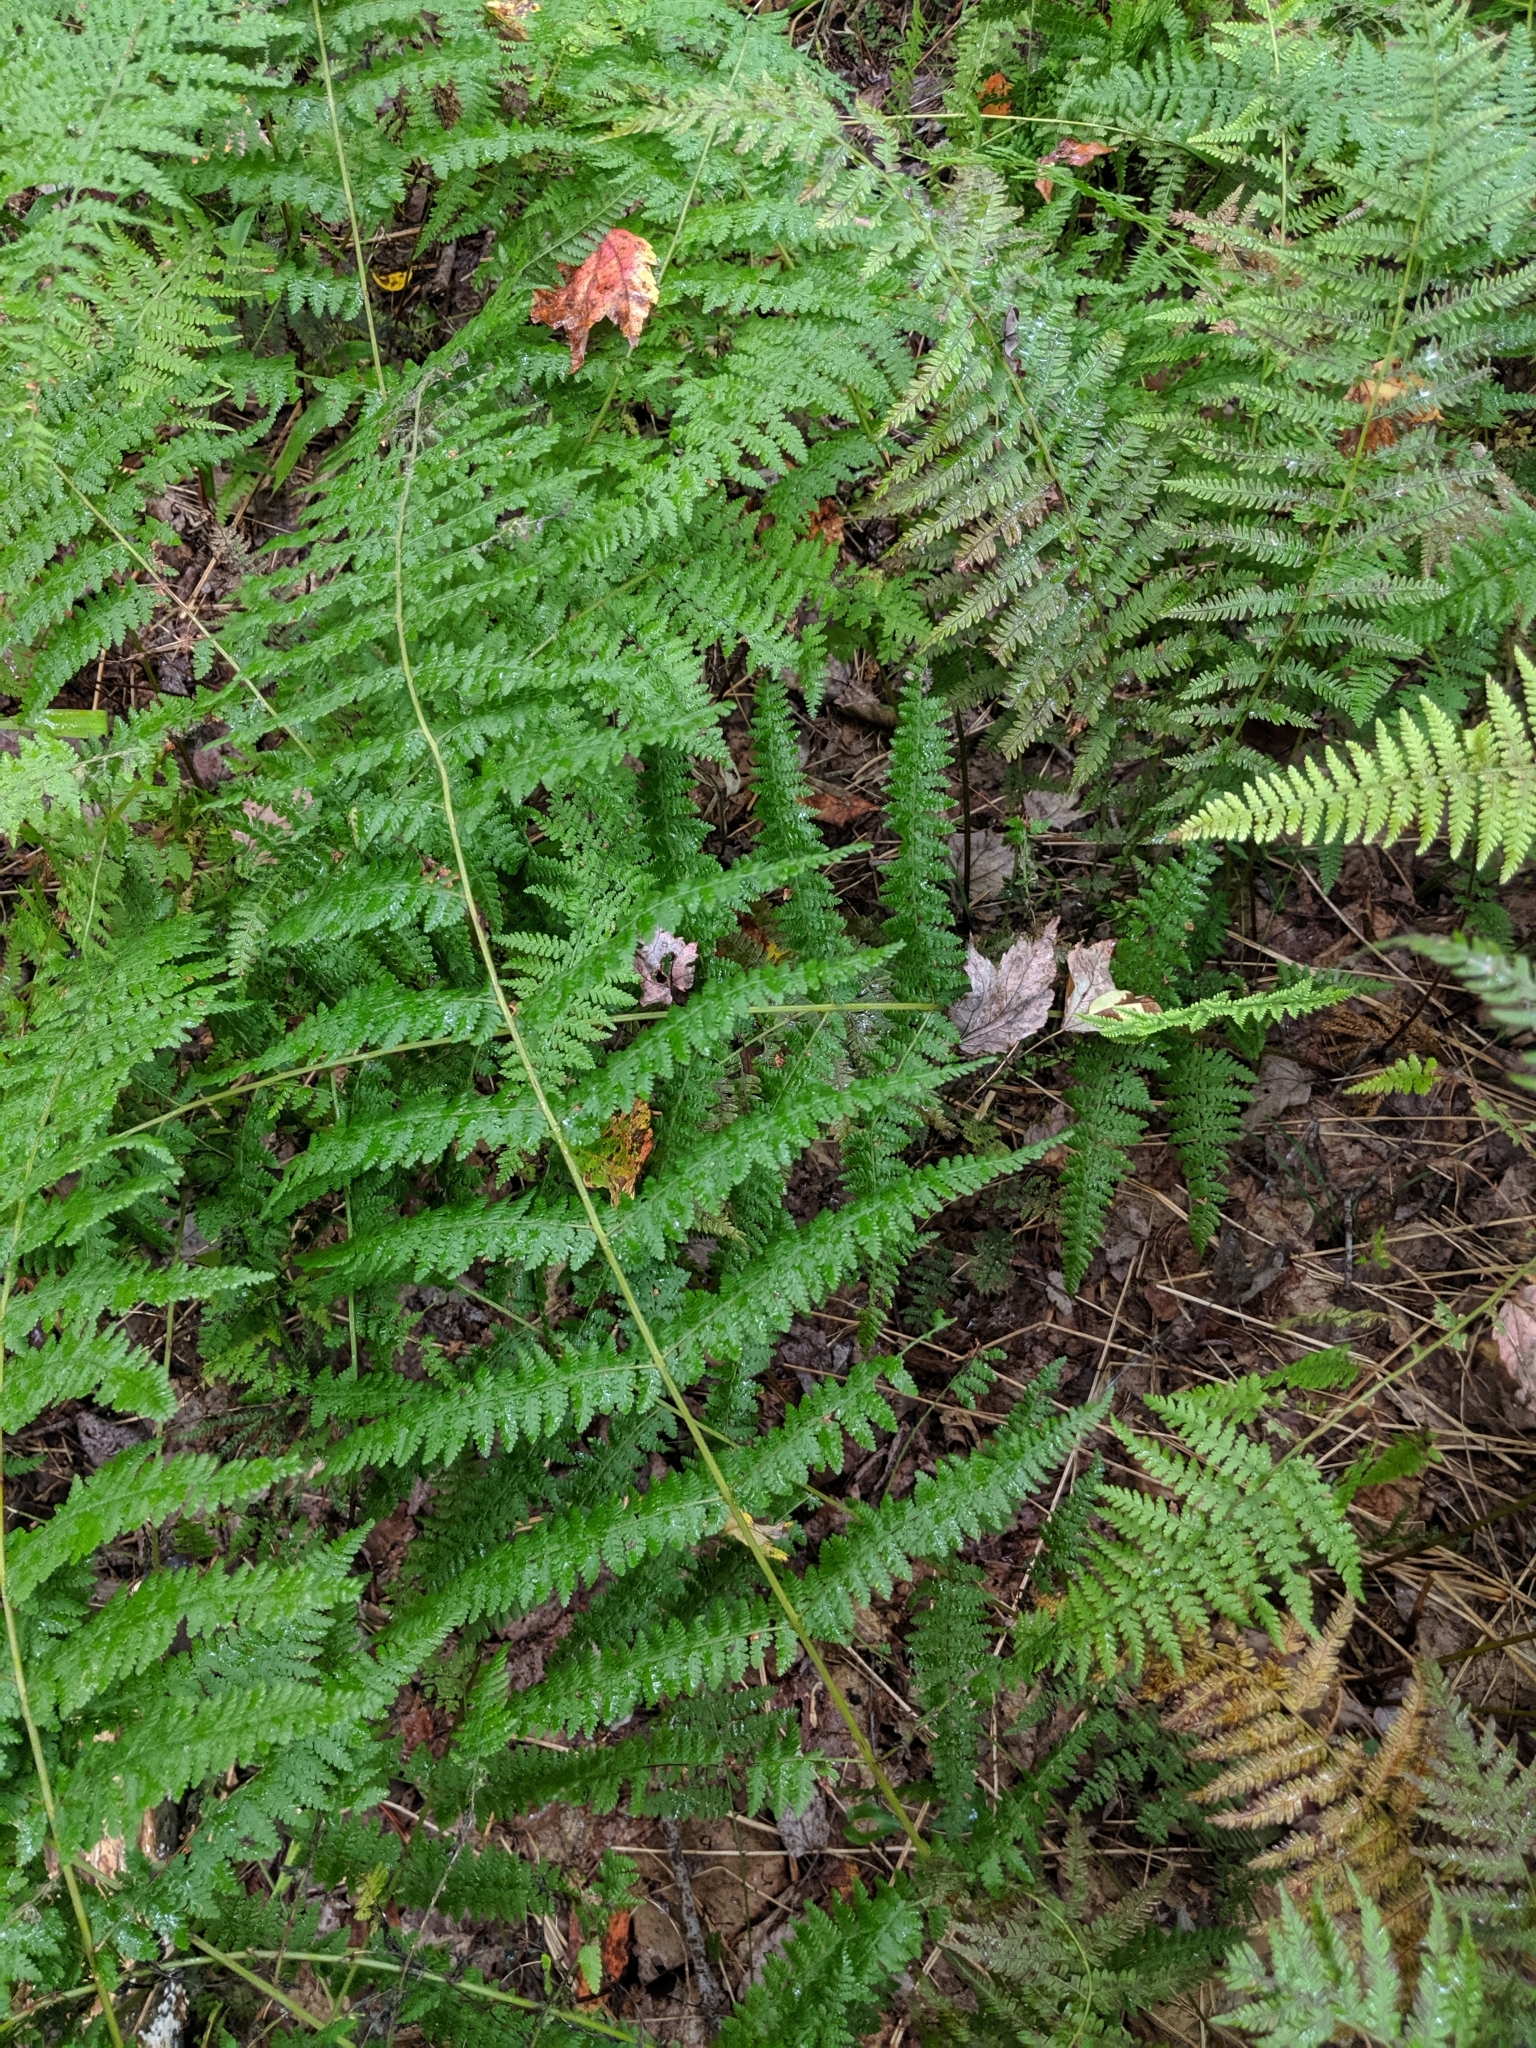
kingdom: Plantae
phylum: Tracheophyta
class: Polypodiopsida
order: Polypodiales
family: Dennstaedtiaceae
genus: Sitobolium
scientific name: Sitobolium punctilobum
